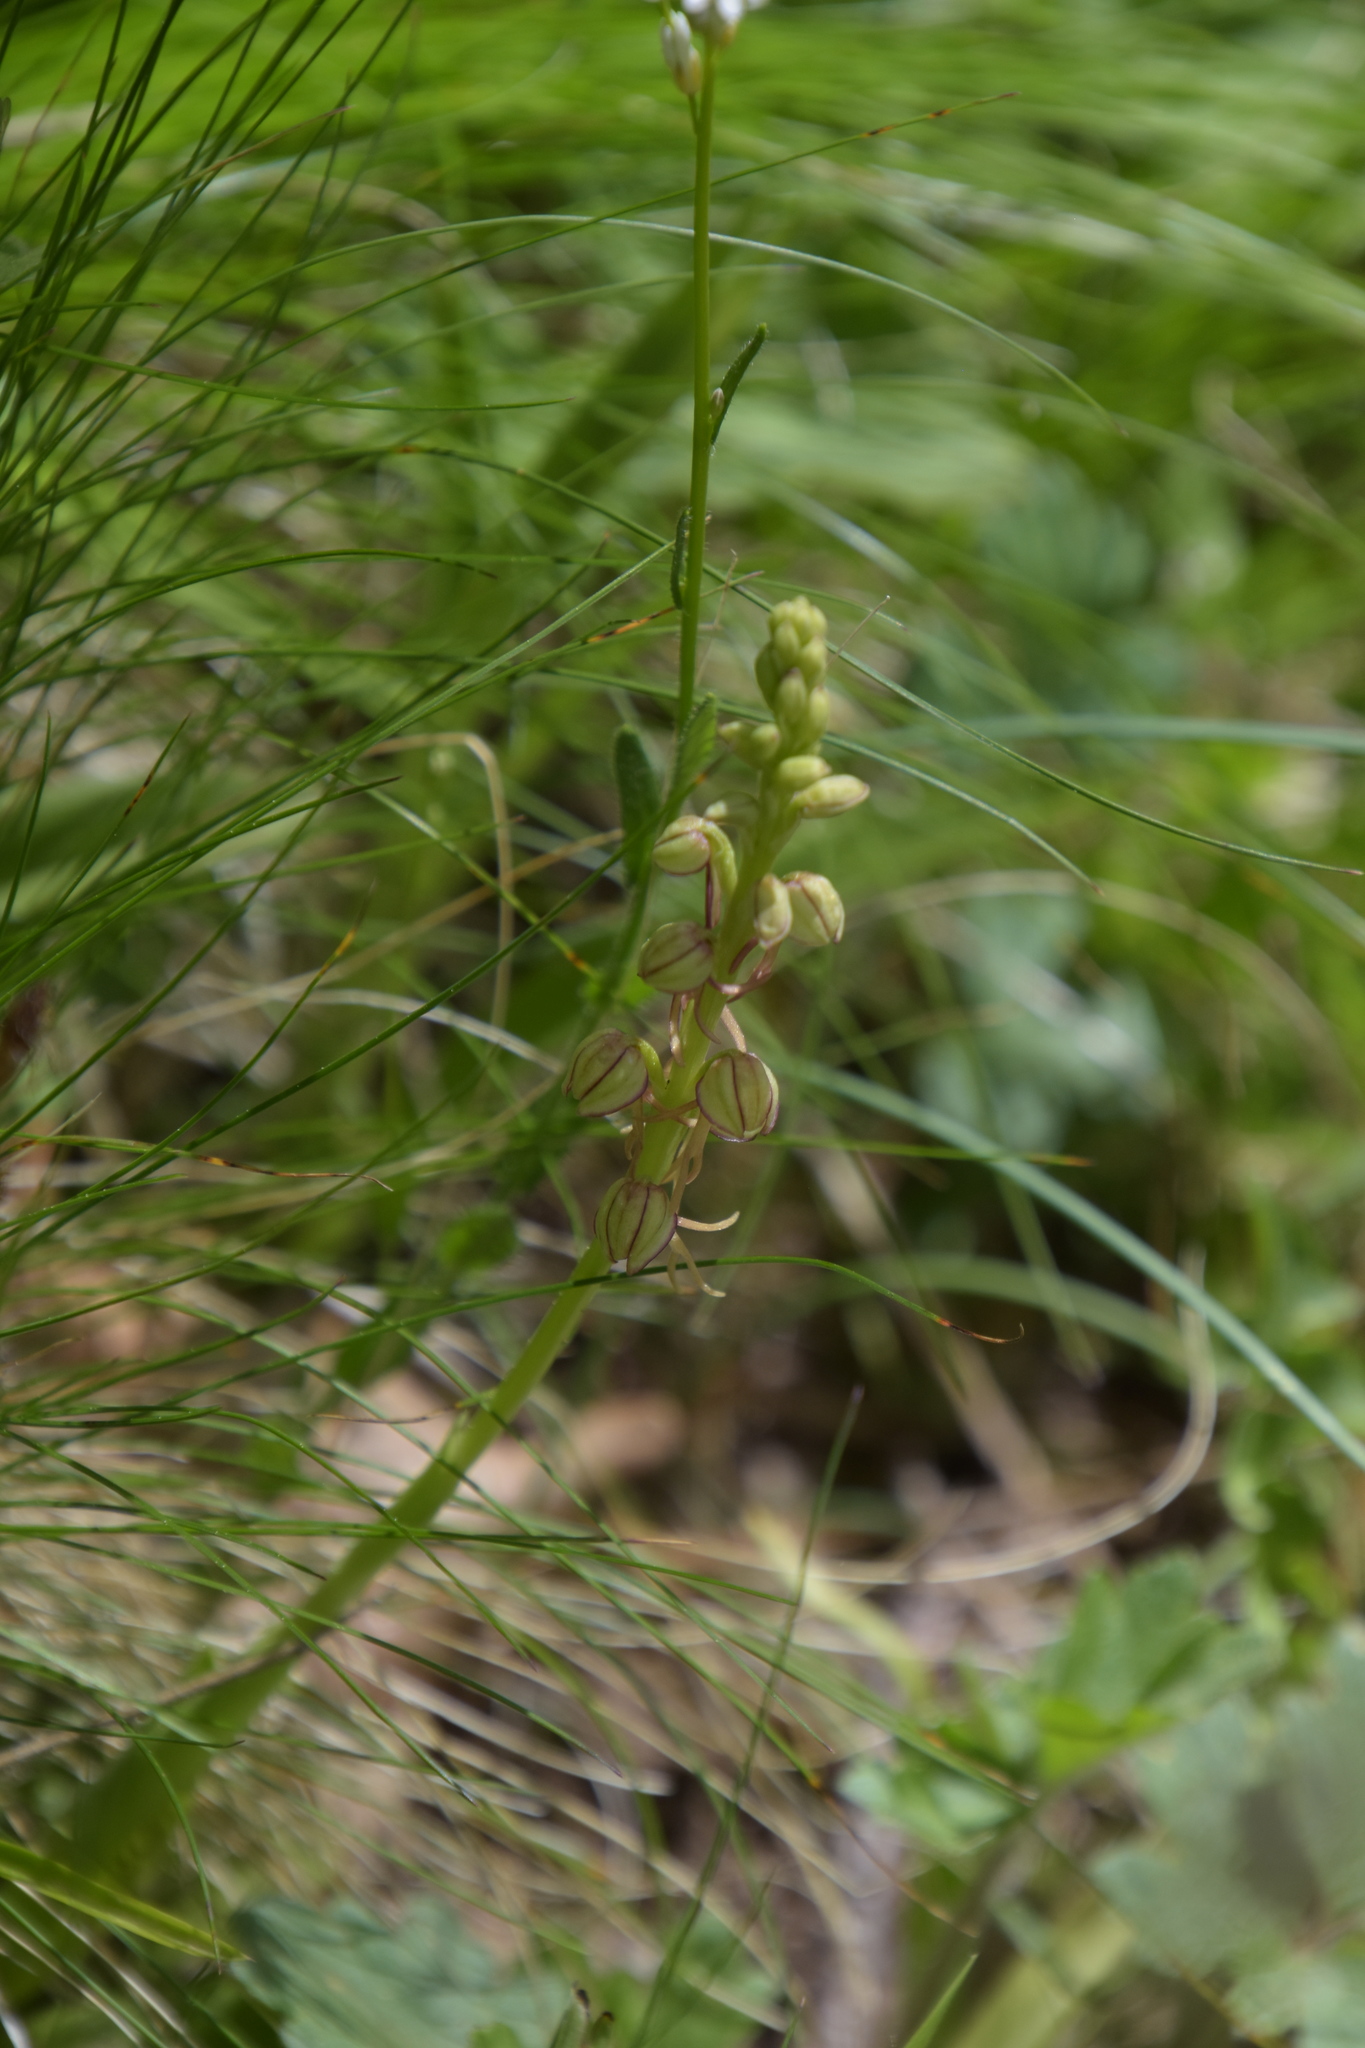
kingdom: Plantae
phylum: Tracheophyta
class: Liliopsida
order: Asparagales
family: Orchidaceae
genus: Orchis
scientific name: Orchis anthropophora
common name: Man orchid
